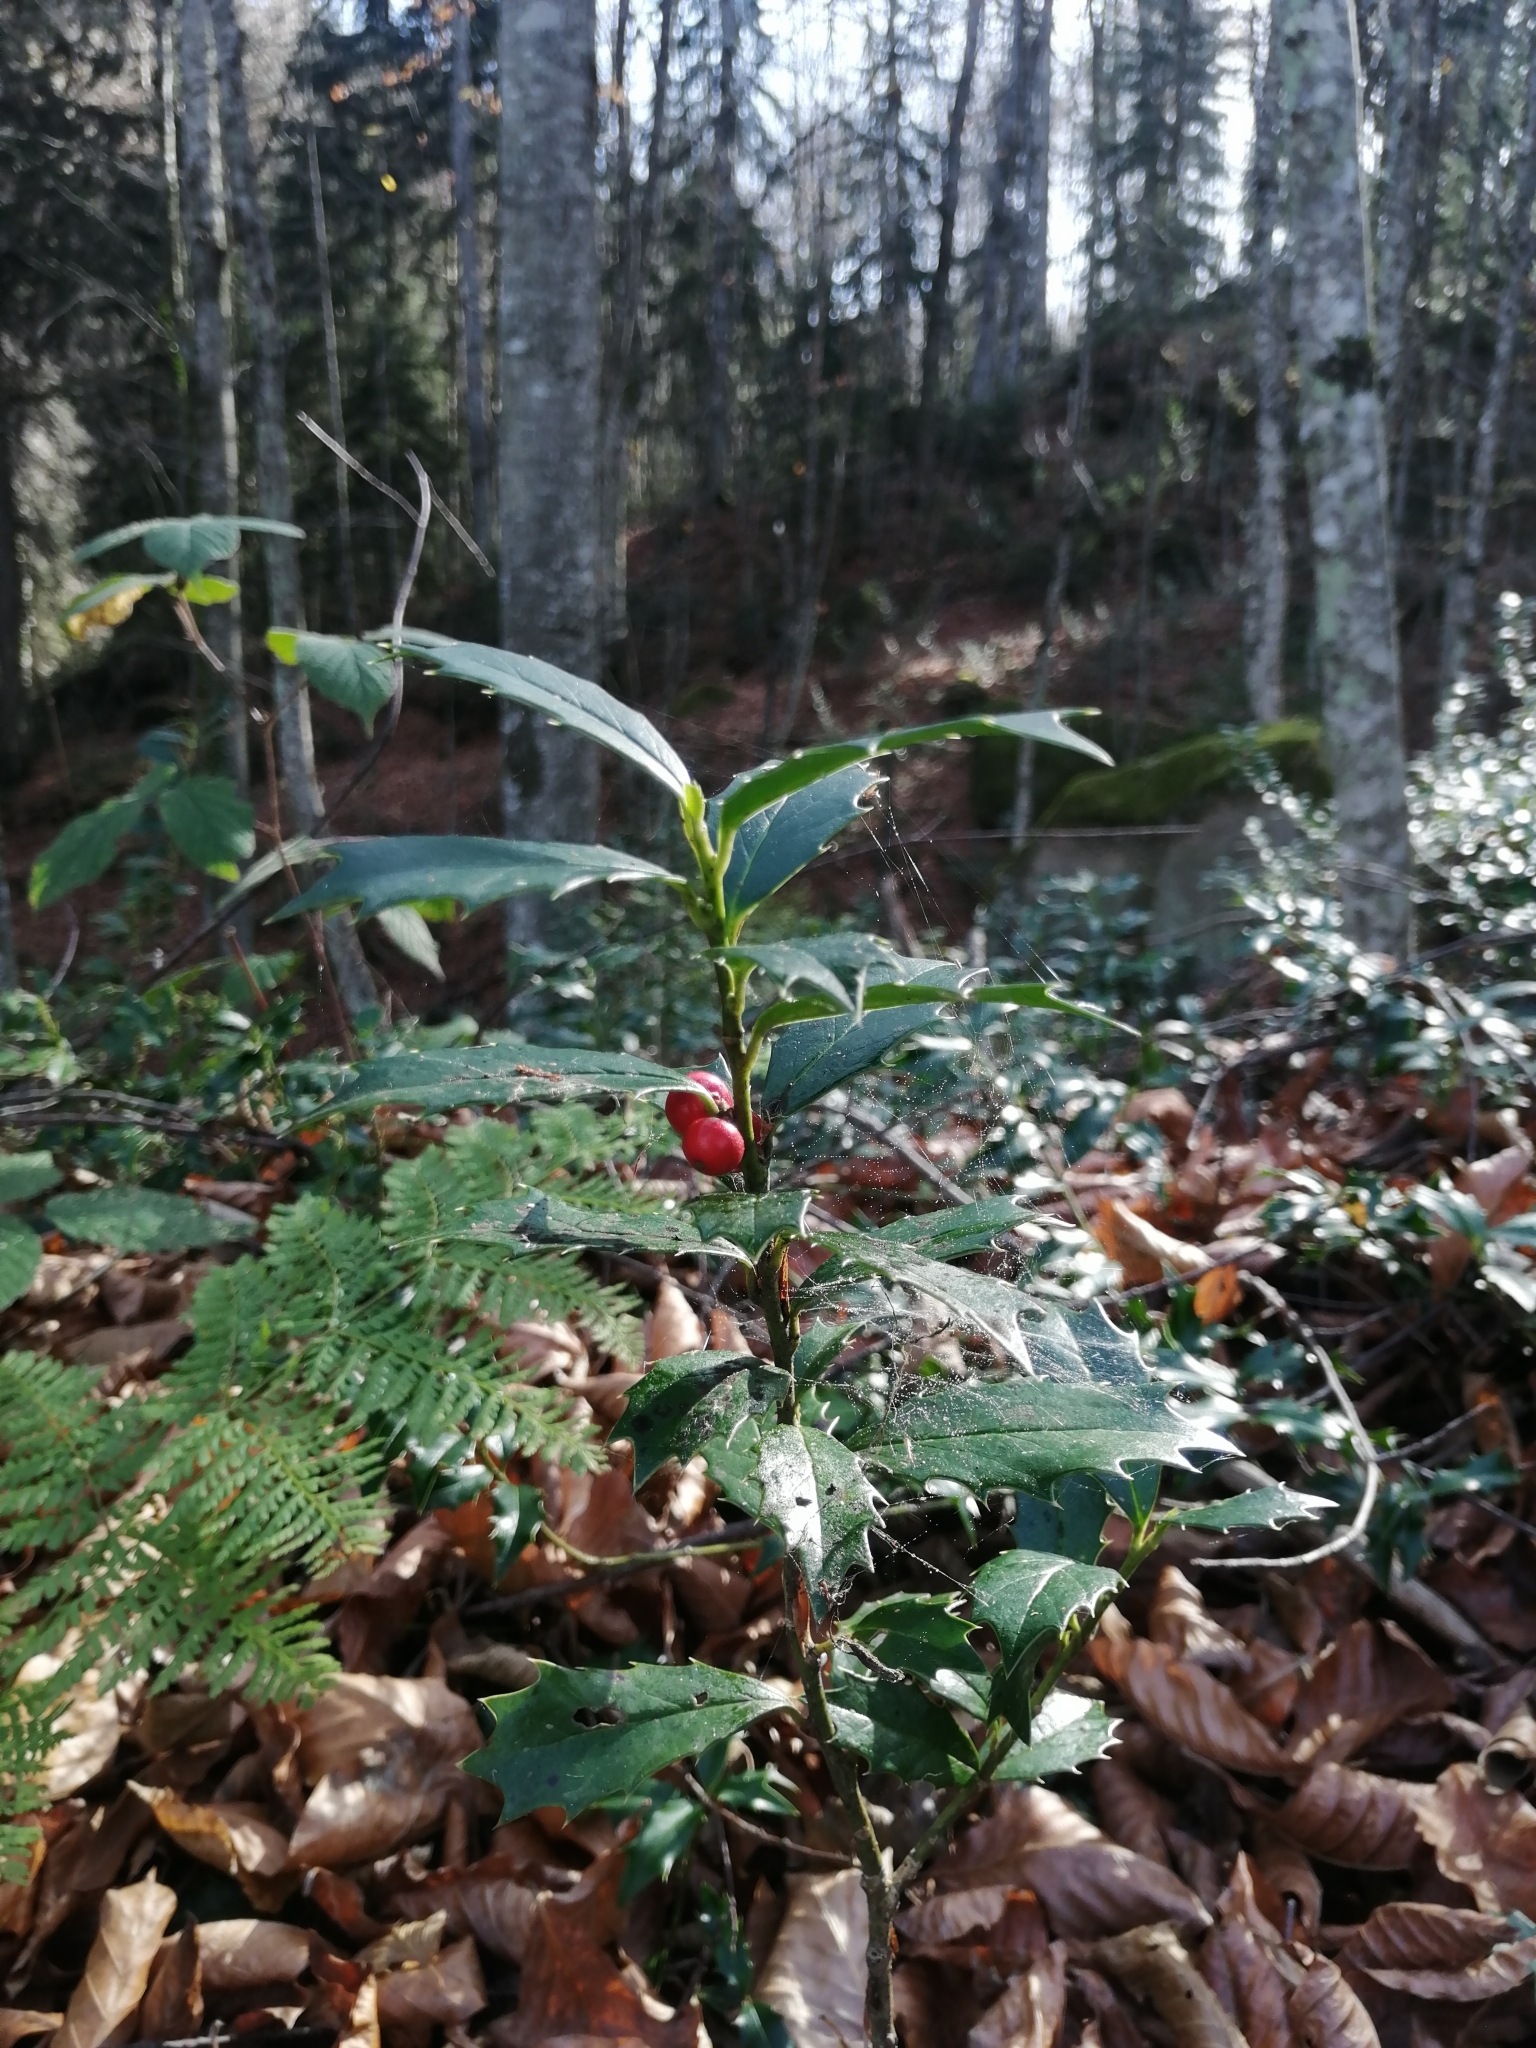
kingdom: Plantae
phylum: Tracheophyta
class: Magnoliopsida
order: Aquifoliales
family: Aquifoliaceae
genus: Ilex
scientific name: Ilex colchica
